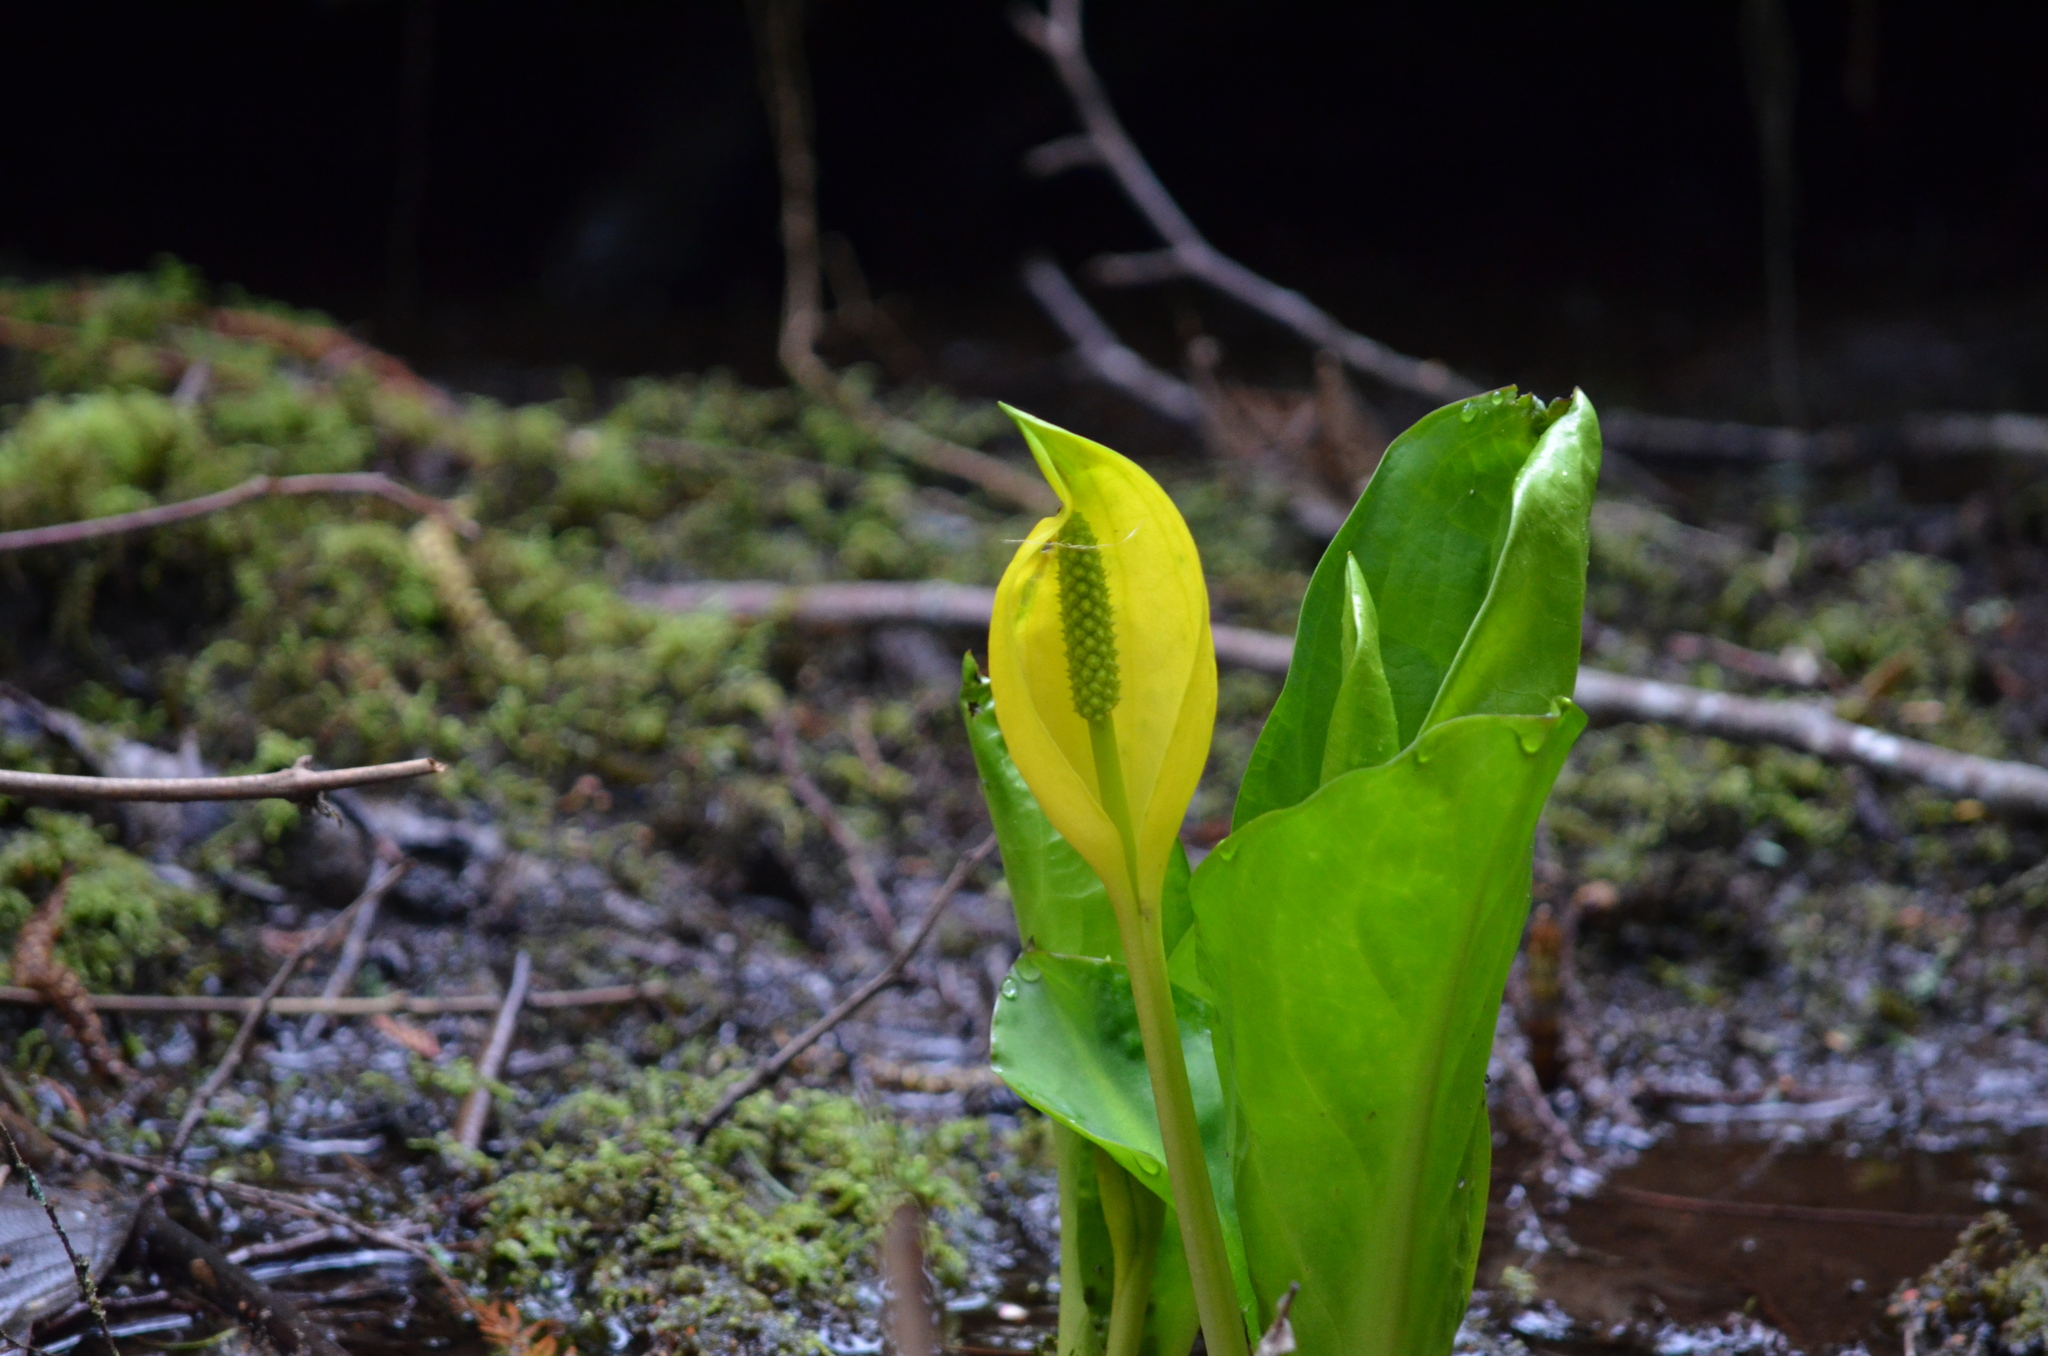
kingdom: Plantae
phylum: Tracheophyta
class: Liliopsida
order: Alismatales
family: Araceae
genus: Lysichiton
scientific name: Lysichiton americanus
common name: American skunk cabbage
